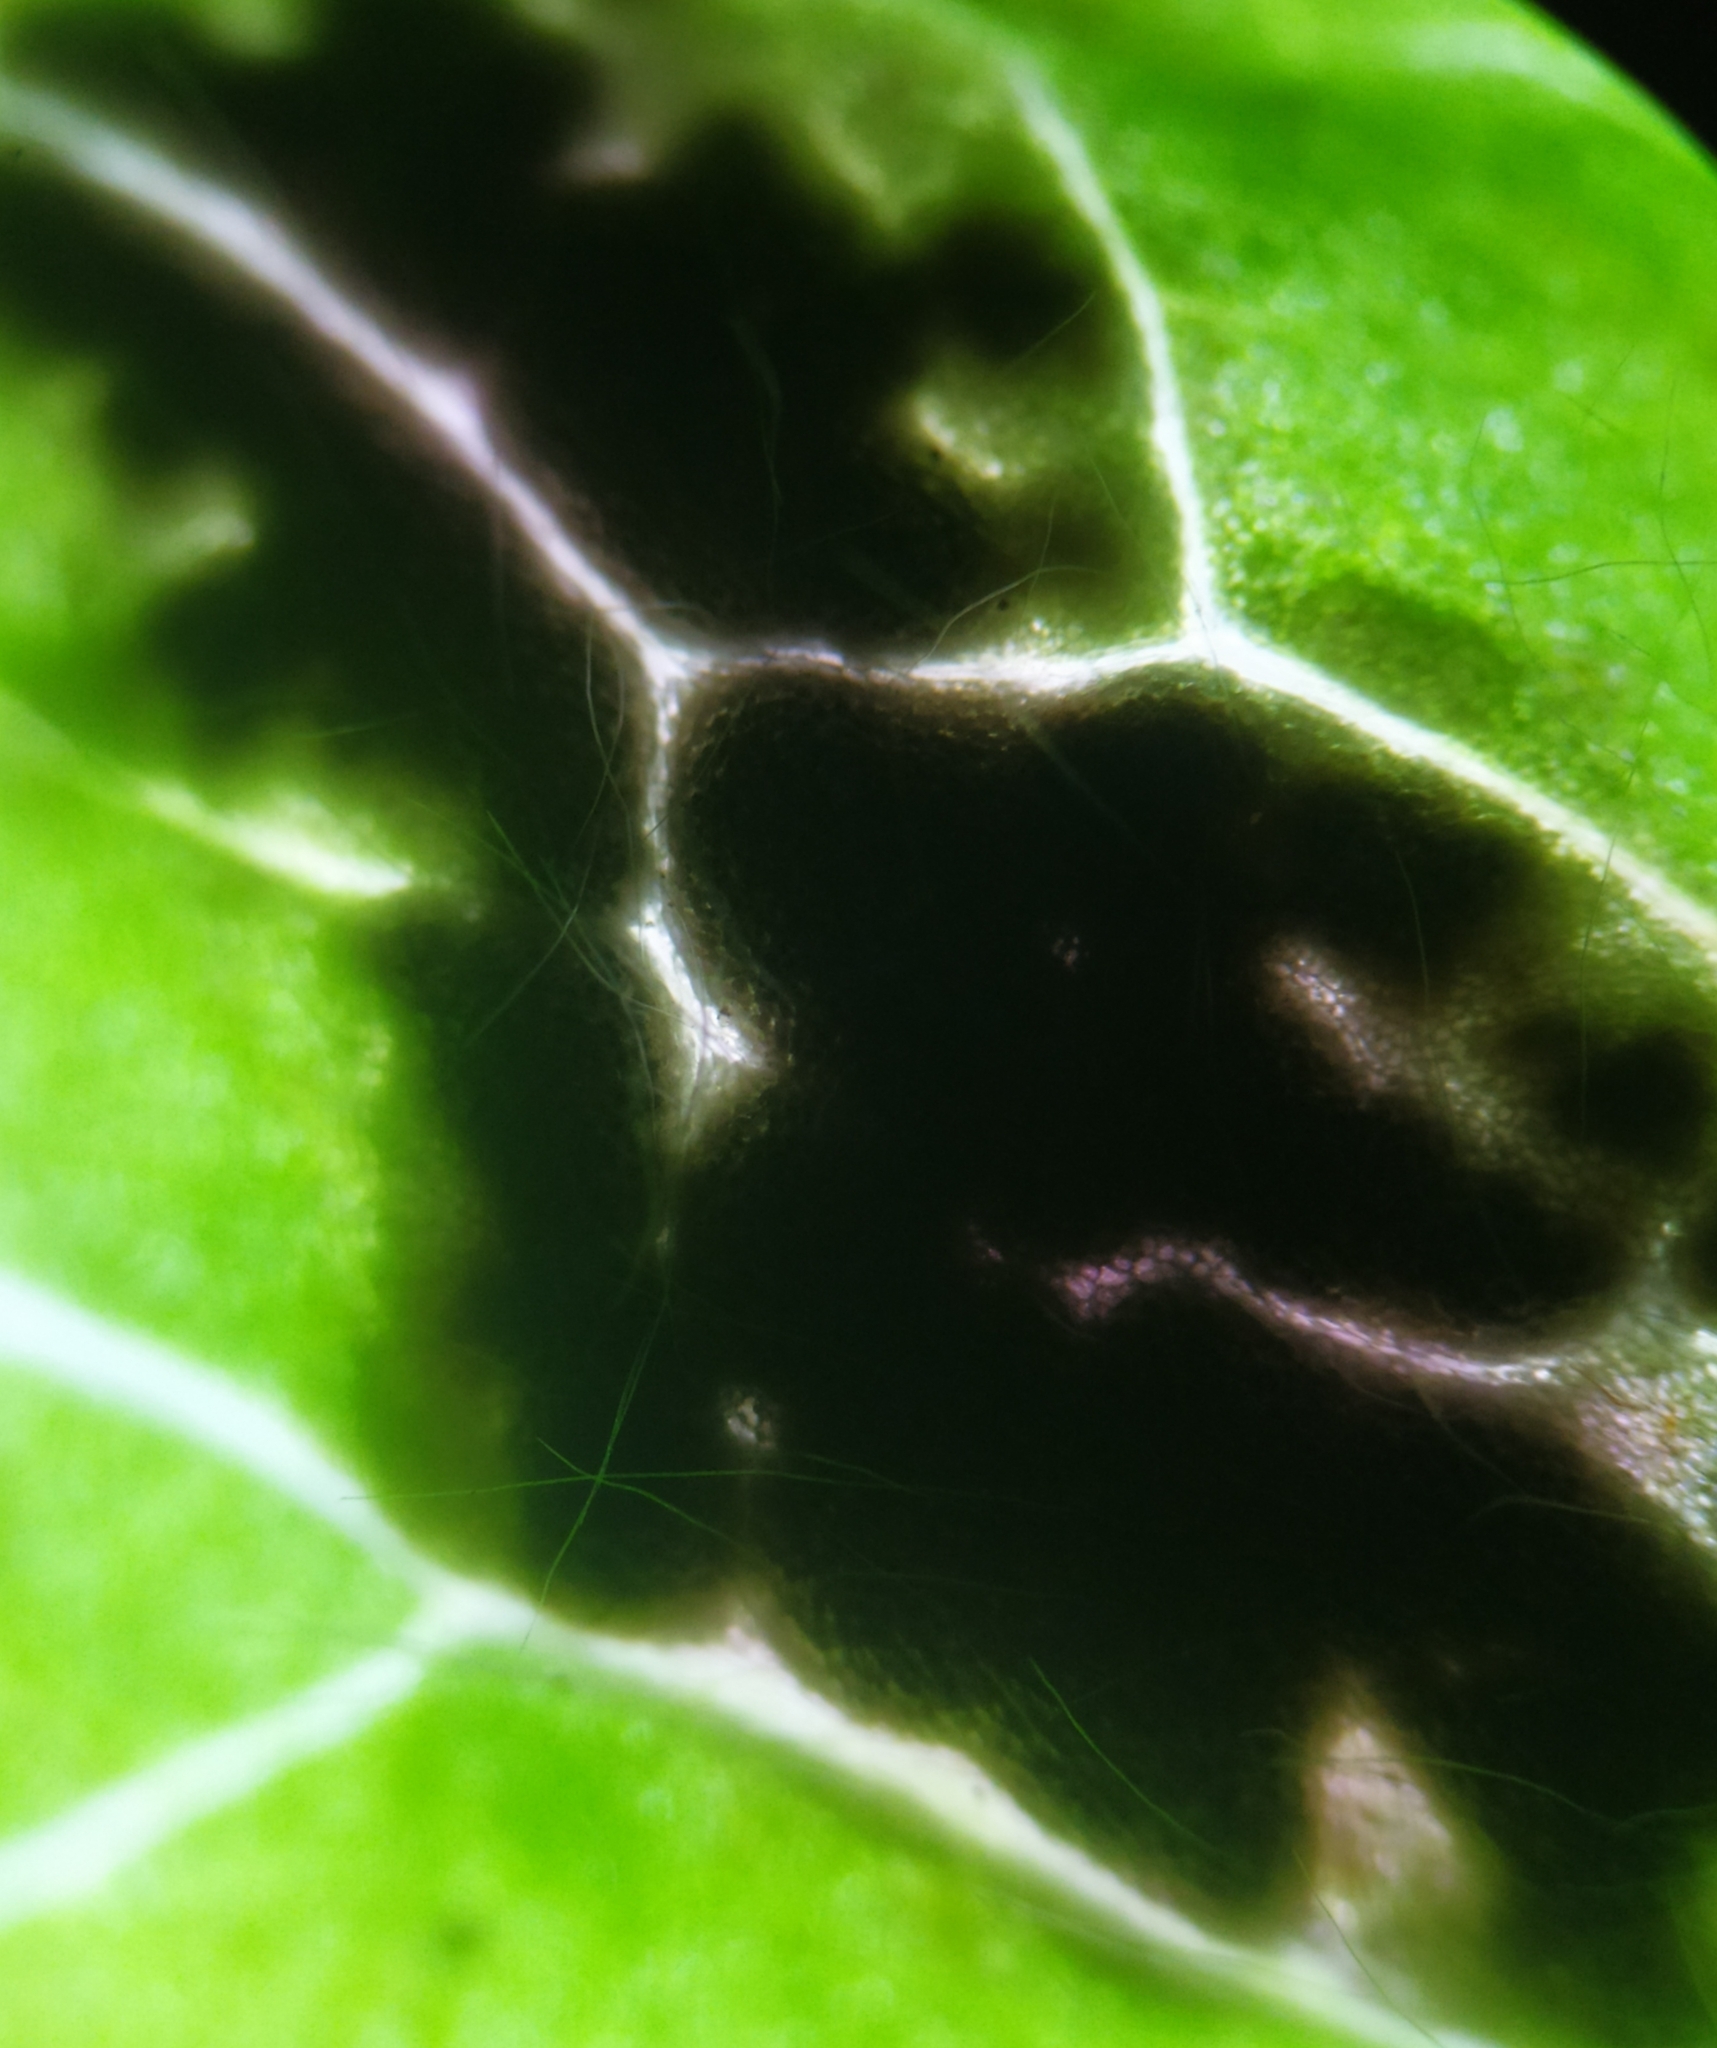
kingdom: Fungi
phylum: Basidiomycota
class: Ustilaginomycetes
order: Urocystidales
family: Urocystidaceae
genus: Urocystis
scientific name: Urocystis syncocca
